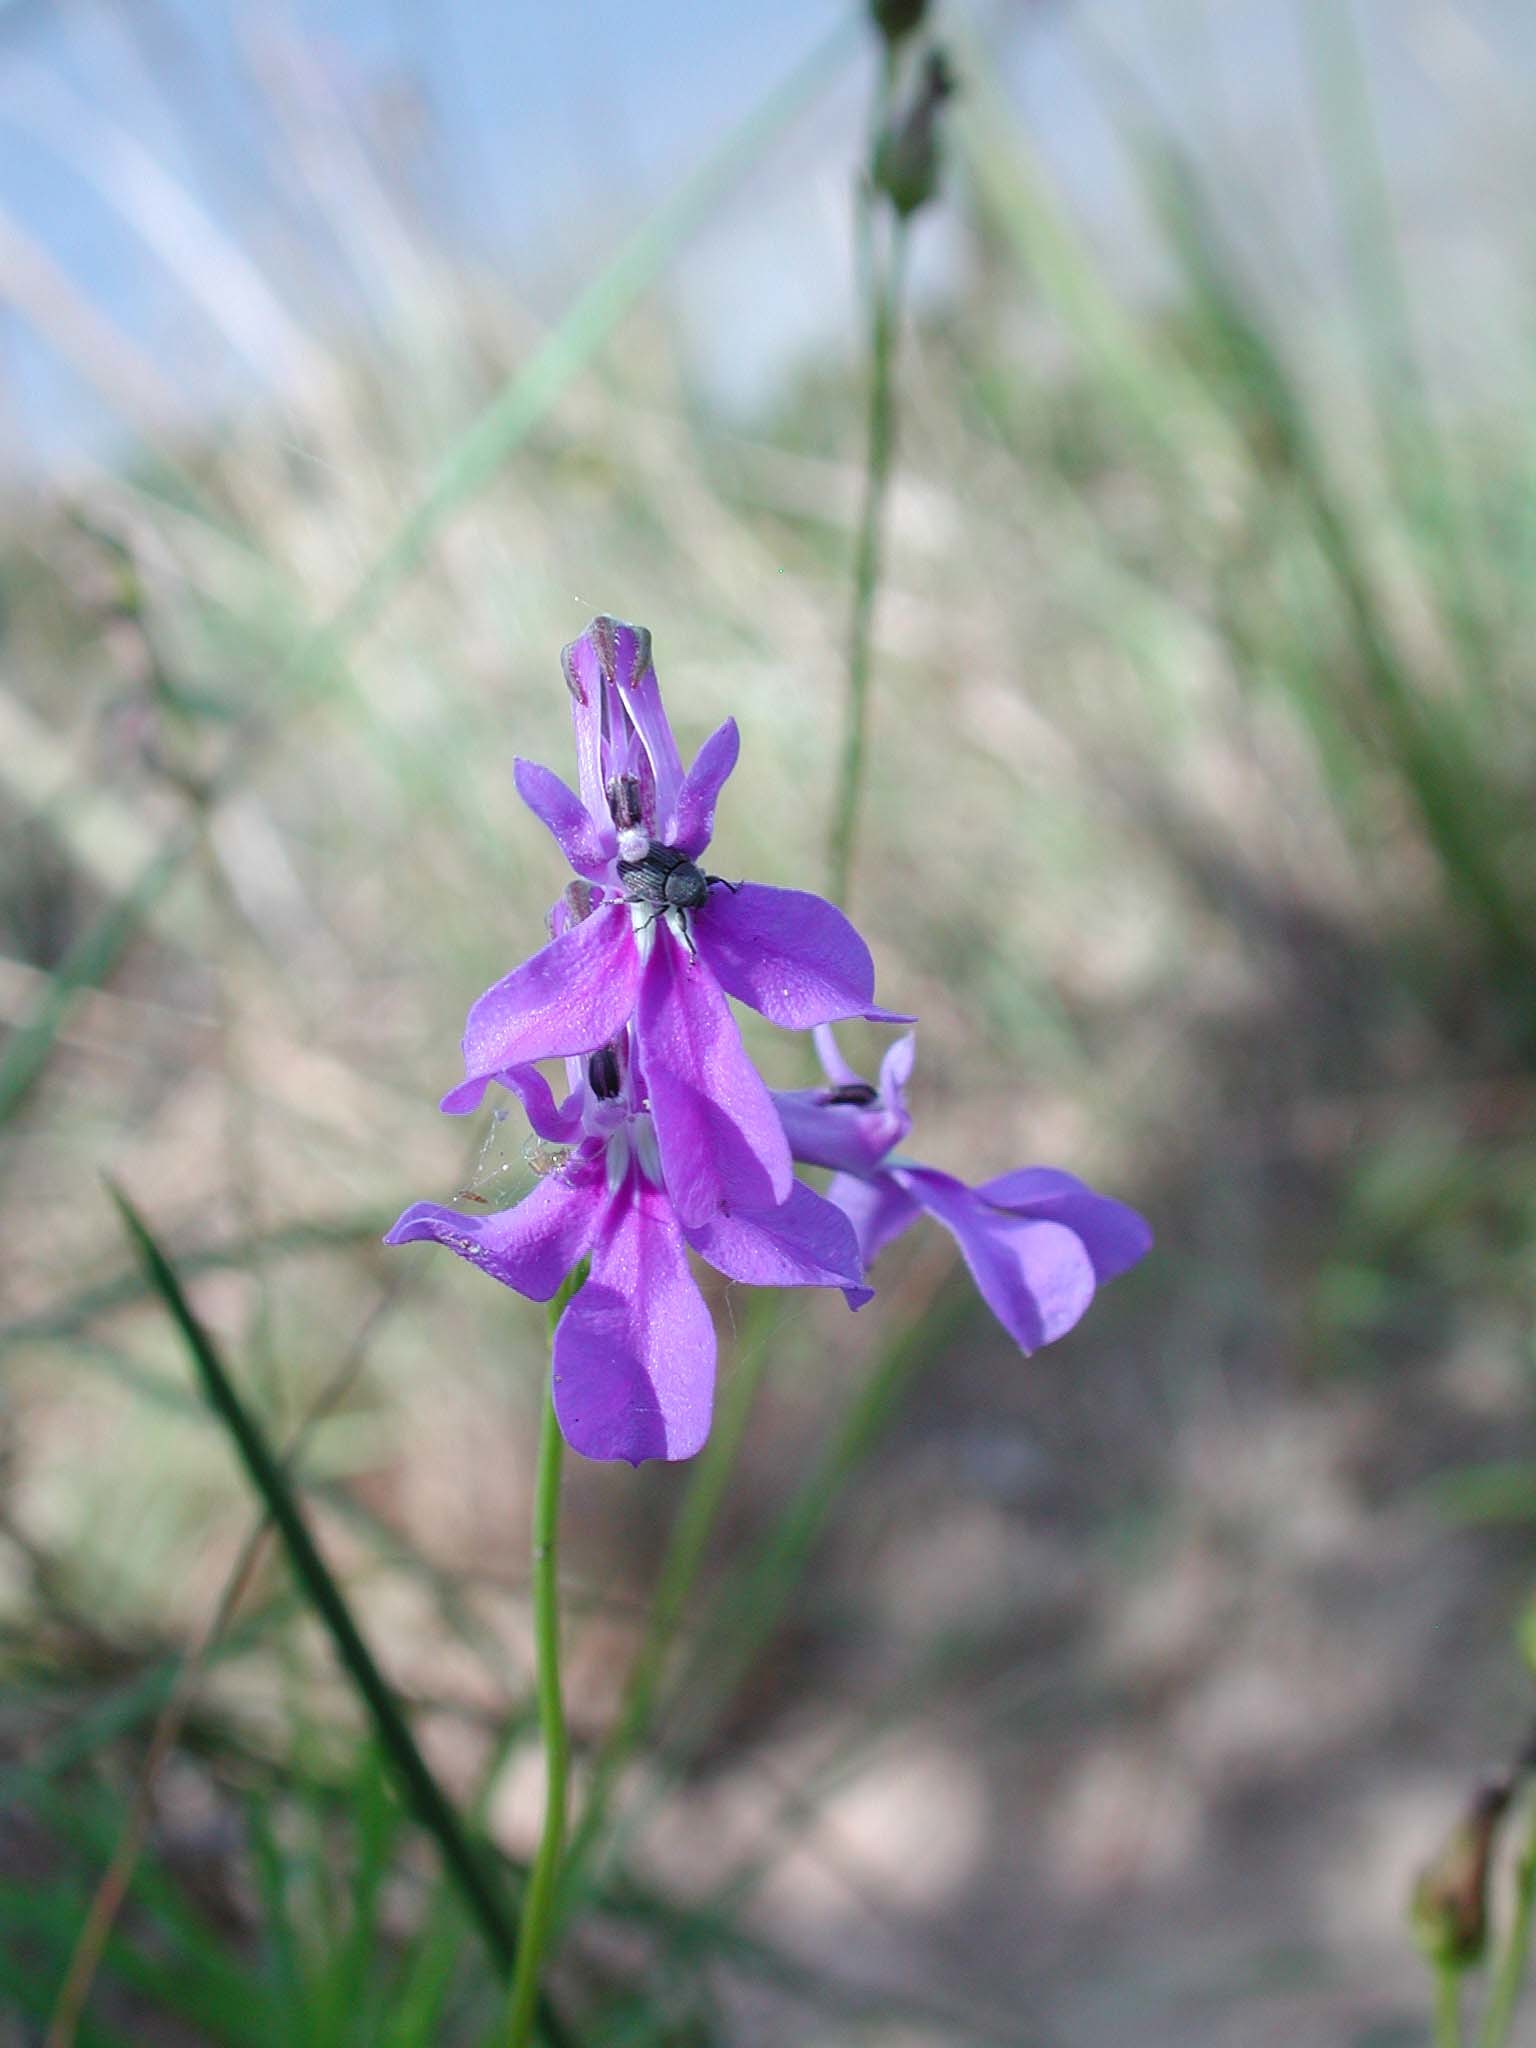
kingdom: Plantae
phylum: Tracheophyta
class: Magnoliopsida
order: Asterales
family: Campanulaceae
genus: Lobelia
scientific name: Lobelia caerulea
